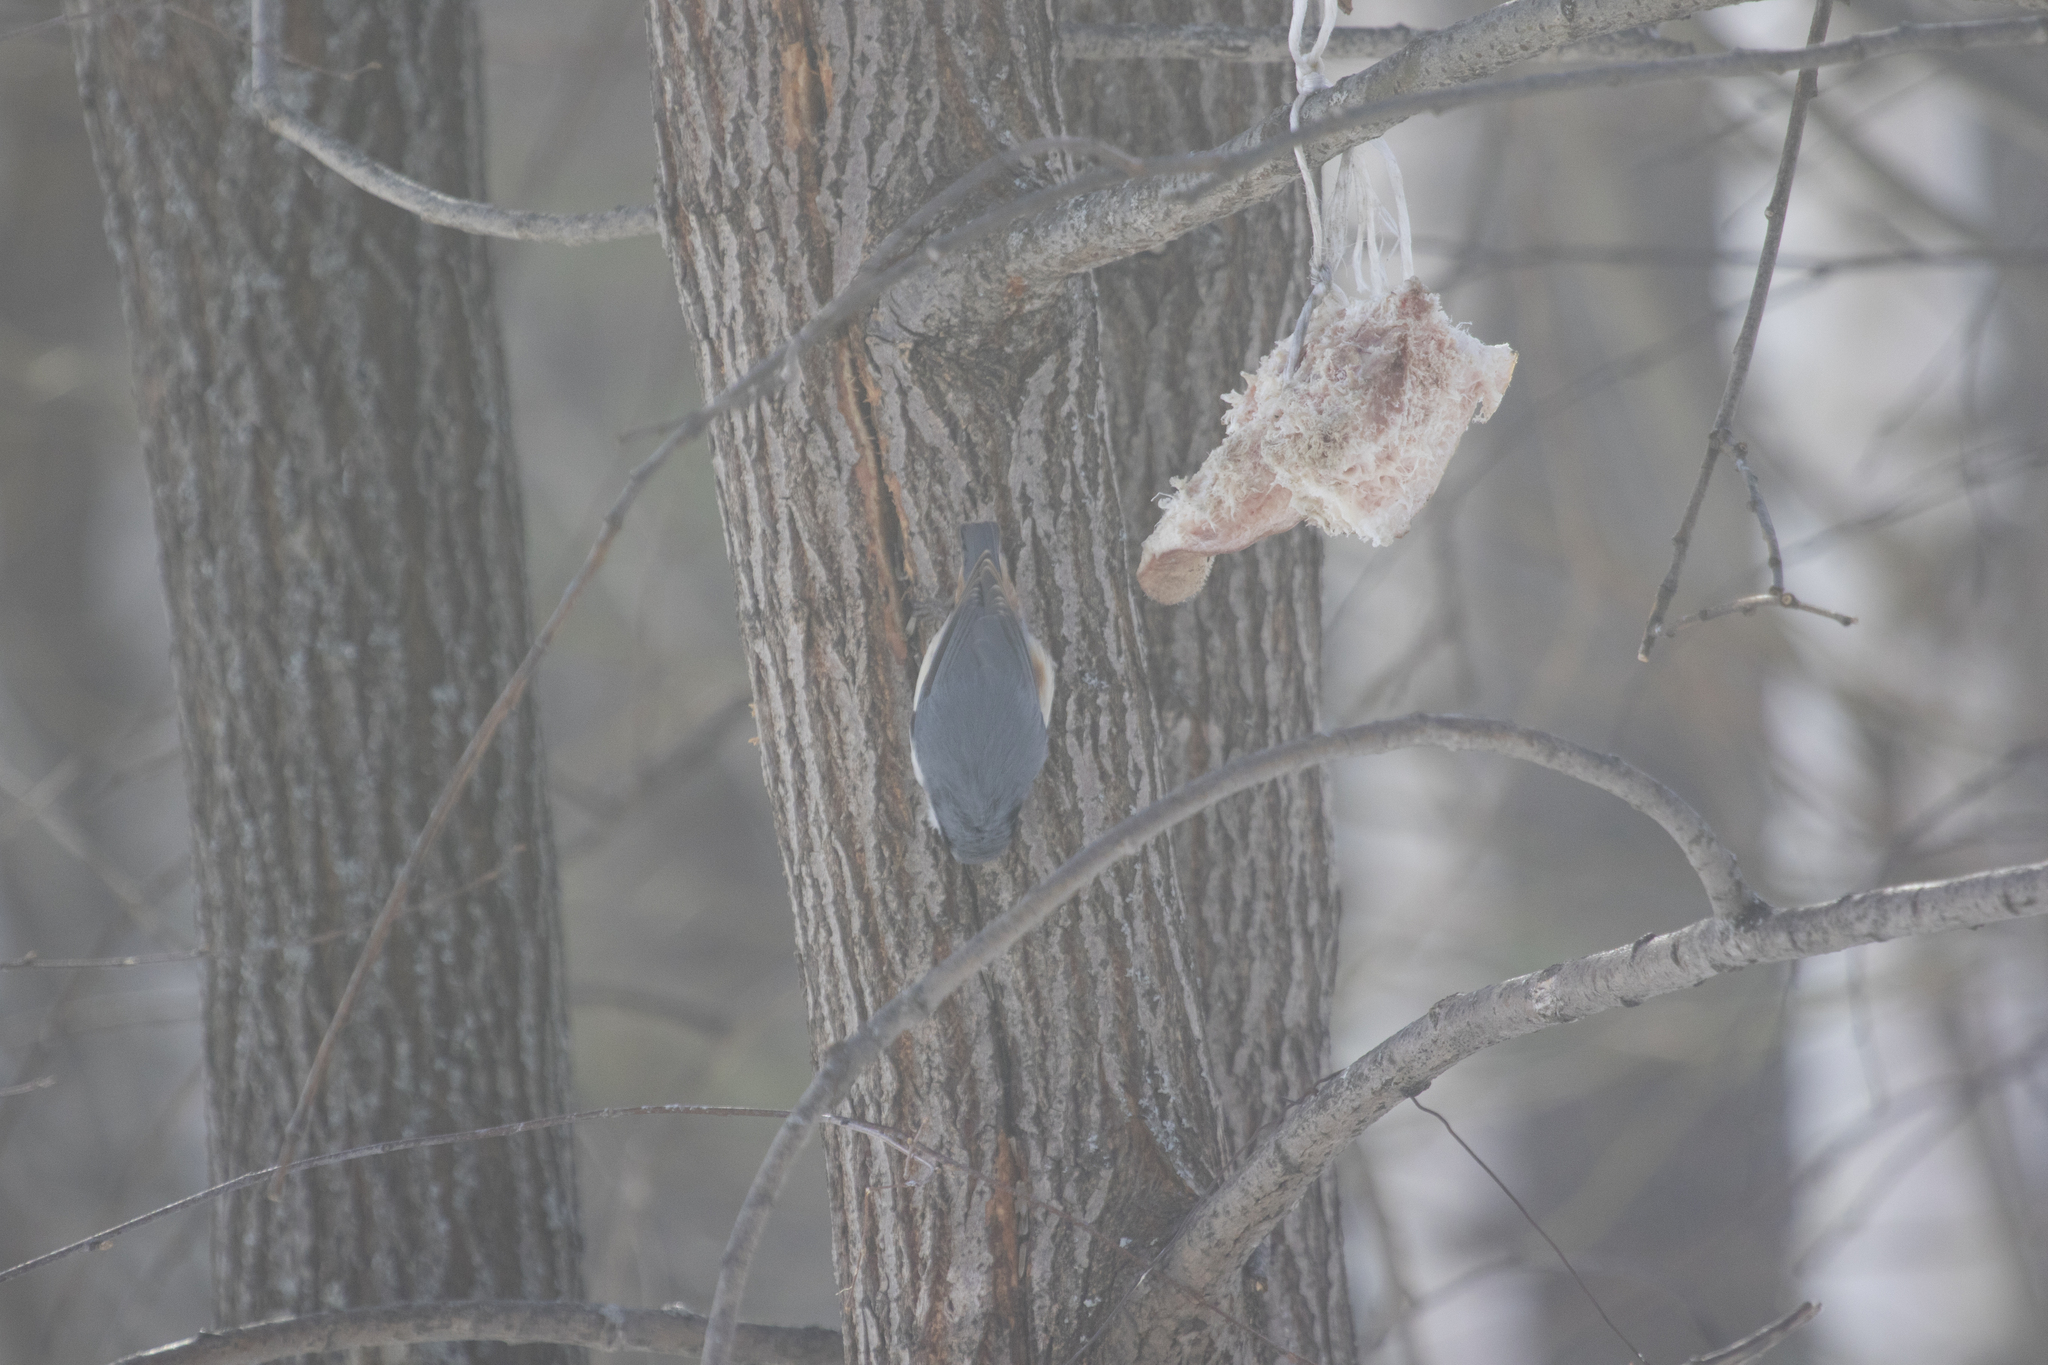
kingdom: Animalia
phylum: Chordata
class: Aves
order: Passeriformes
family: Sittidae
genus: Sitta
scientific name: Sitta europaea
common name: Eurasian nuthatch
